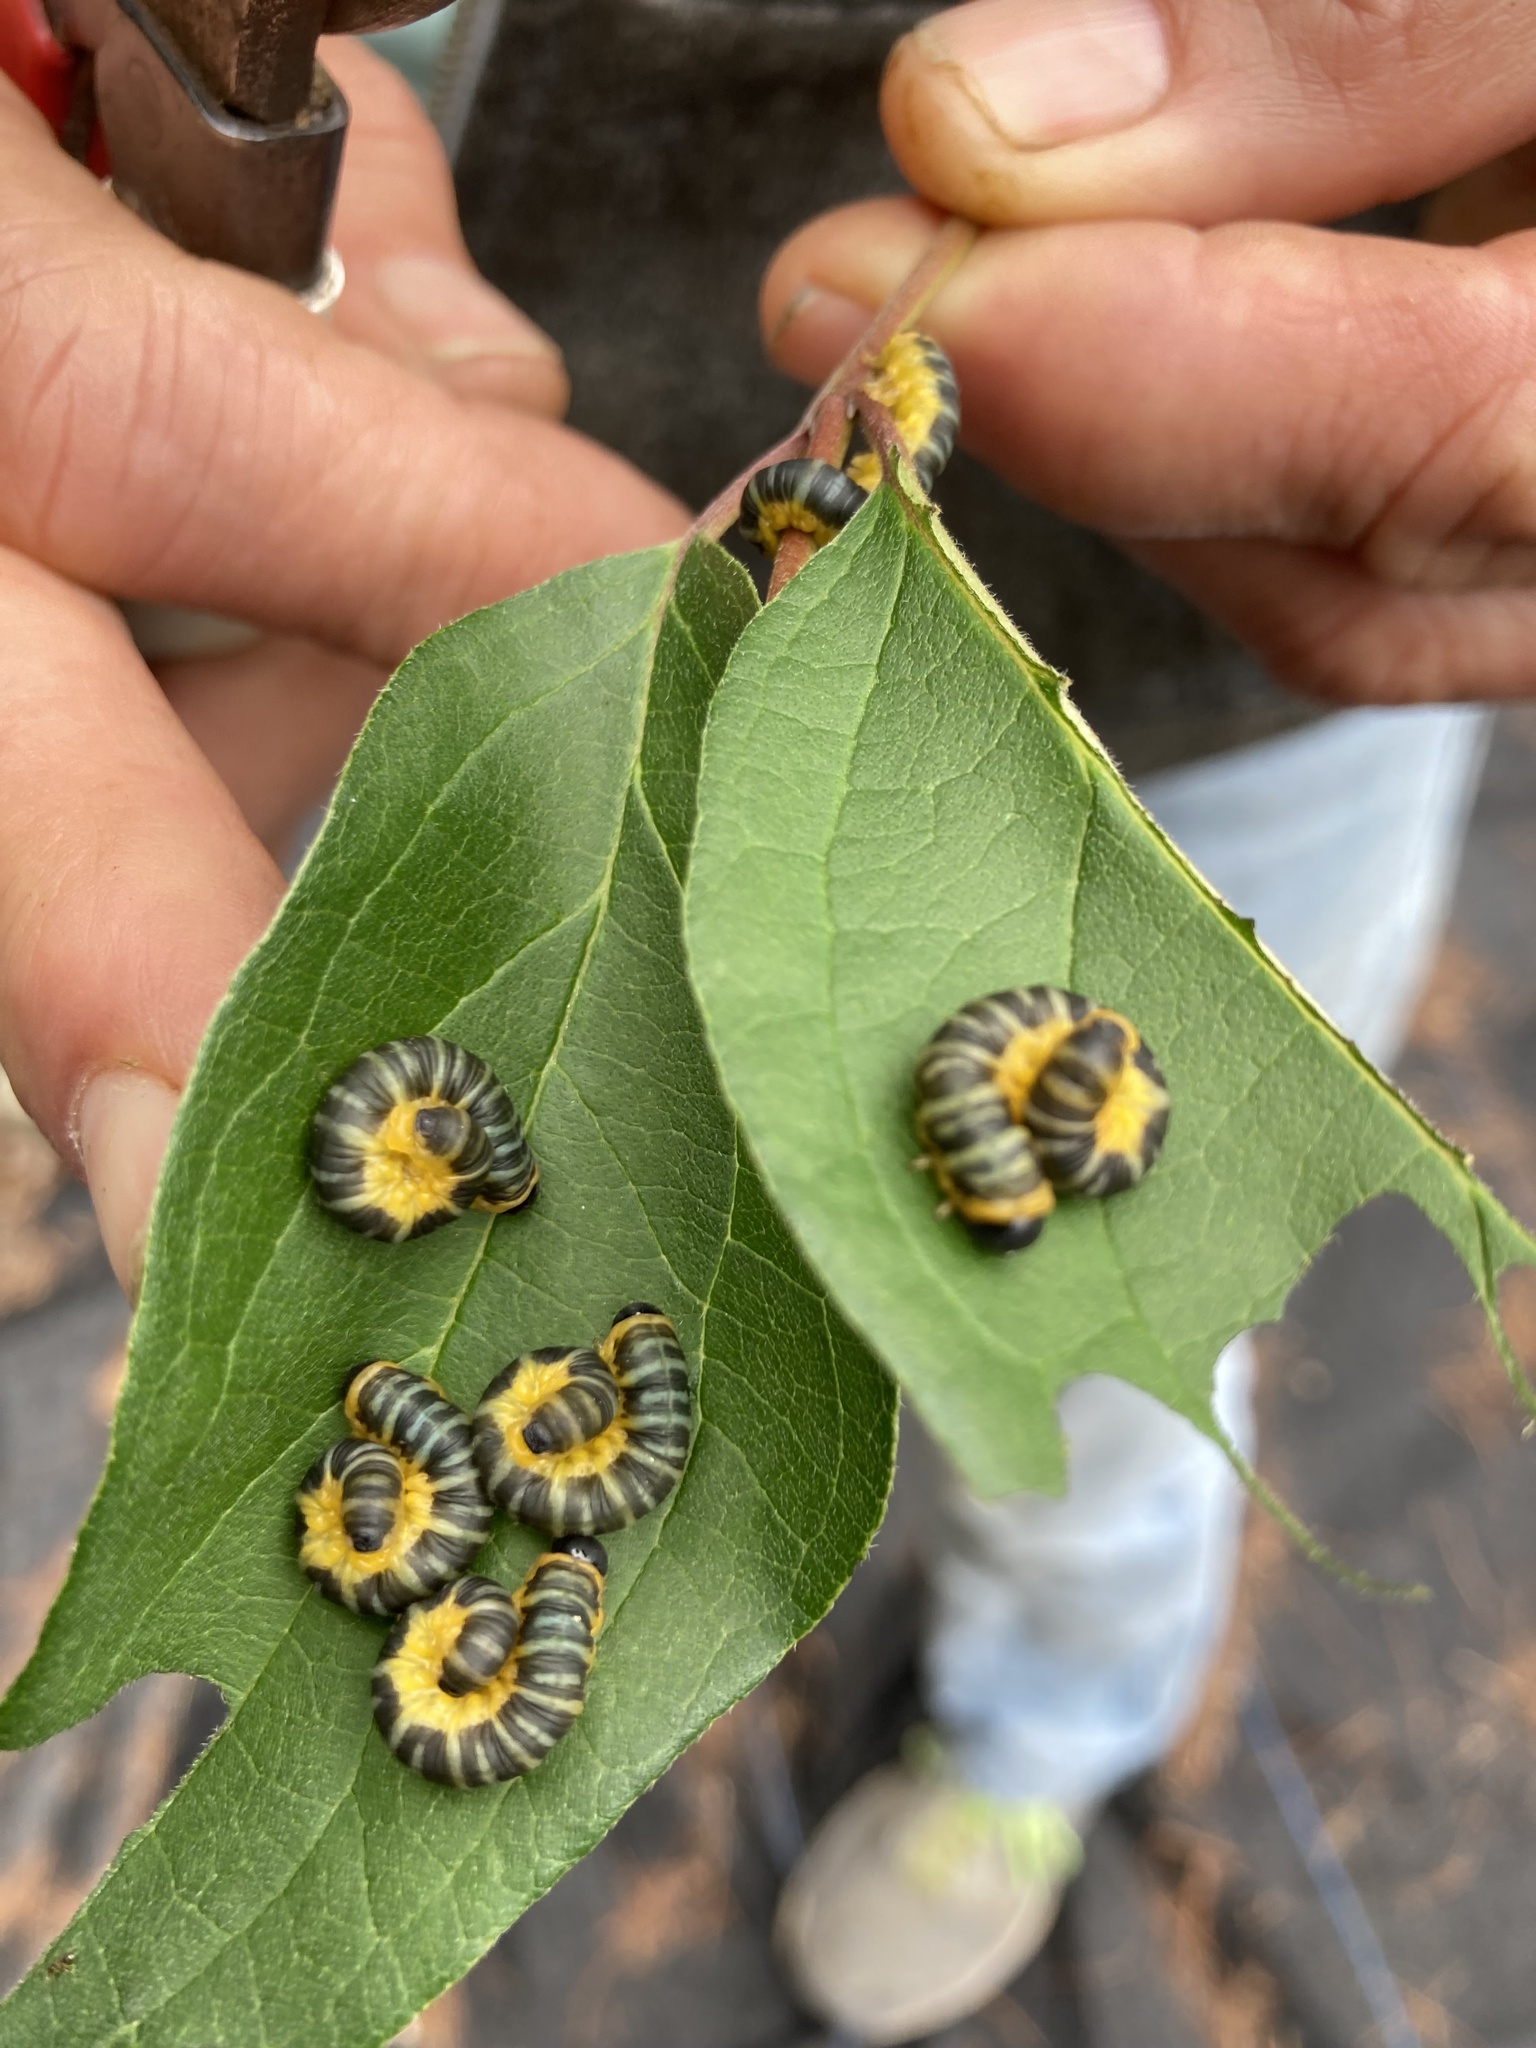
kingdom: Animalia
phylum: Arthropoda
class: Insecta
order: Hymenoptera
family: Tenthredinidae
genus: Macremphytus
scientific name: Macremphytus
